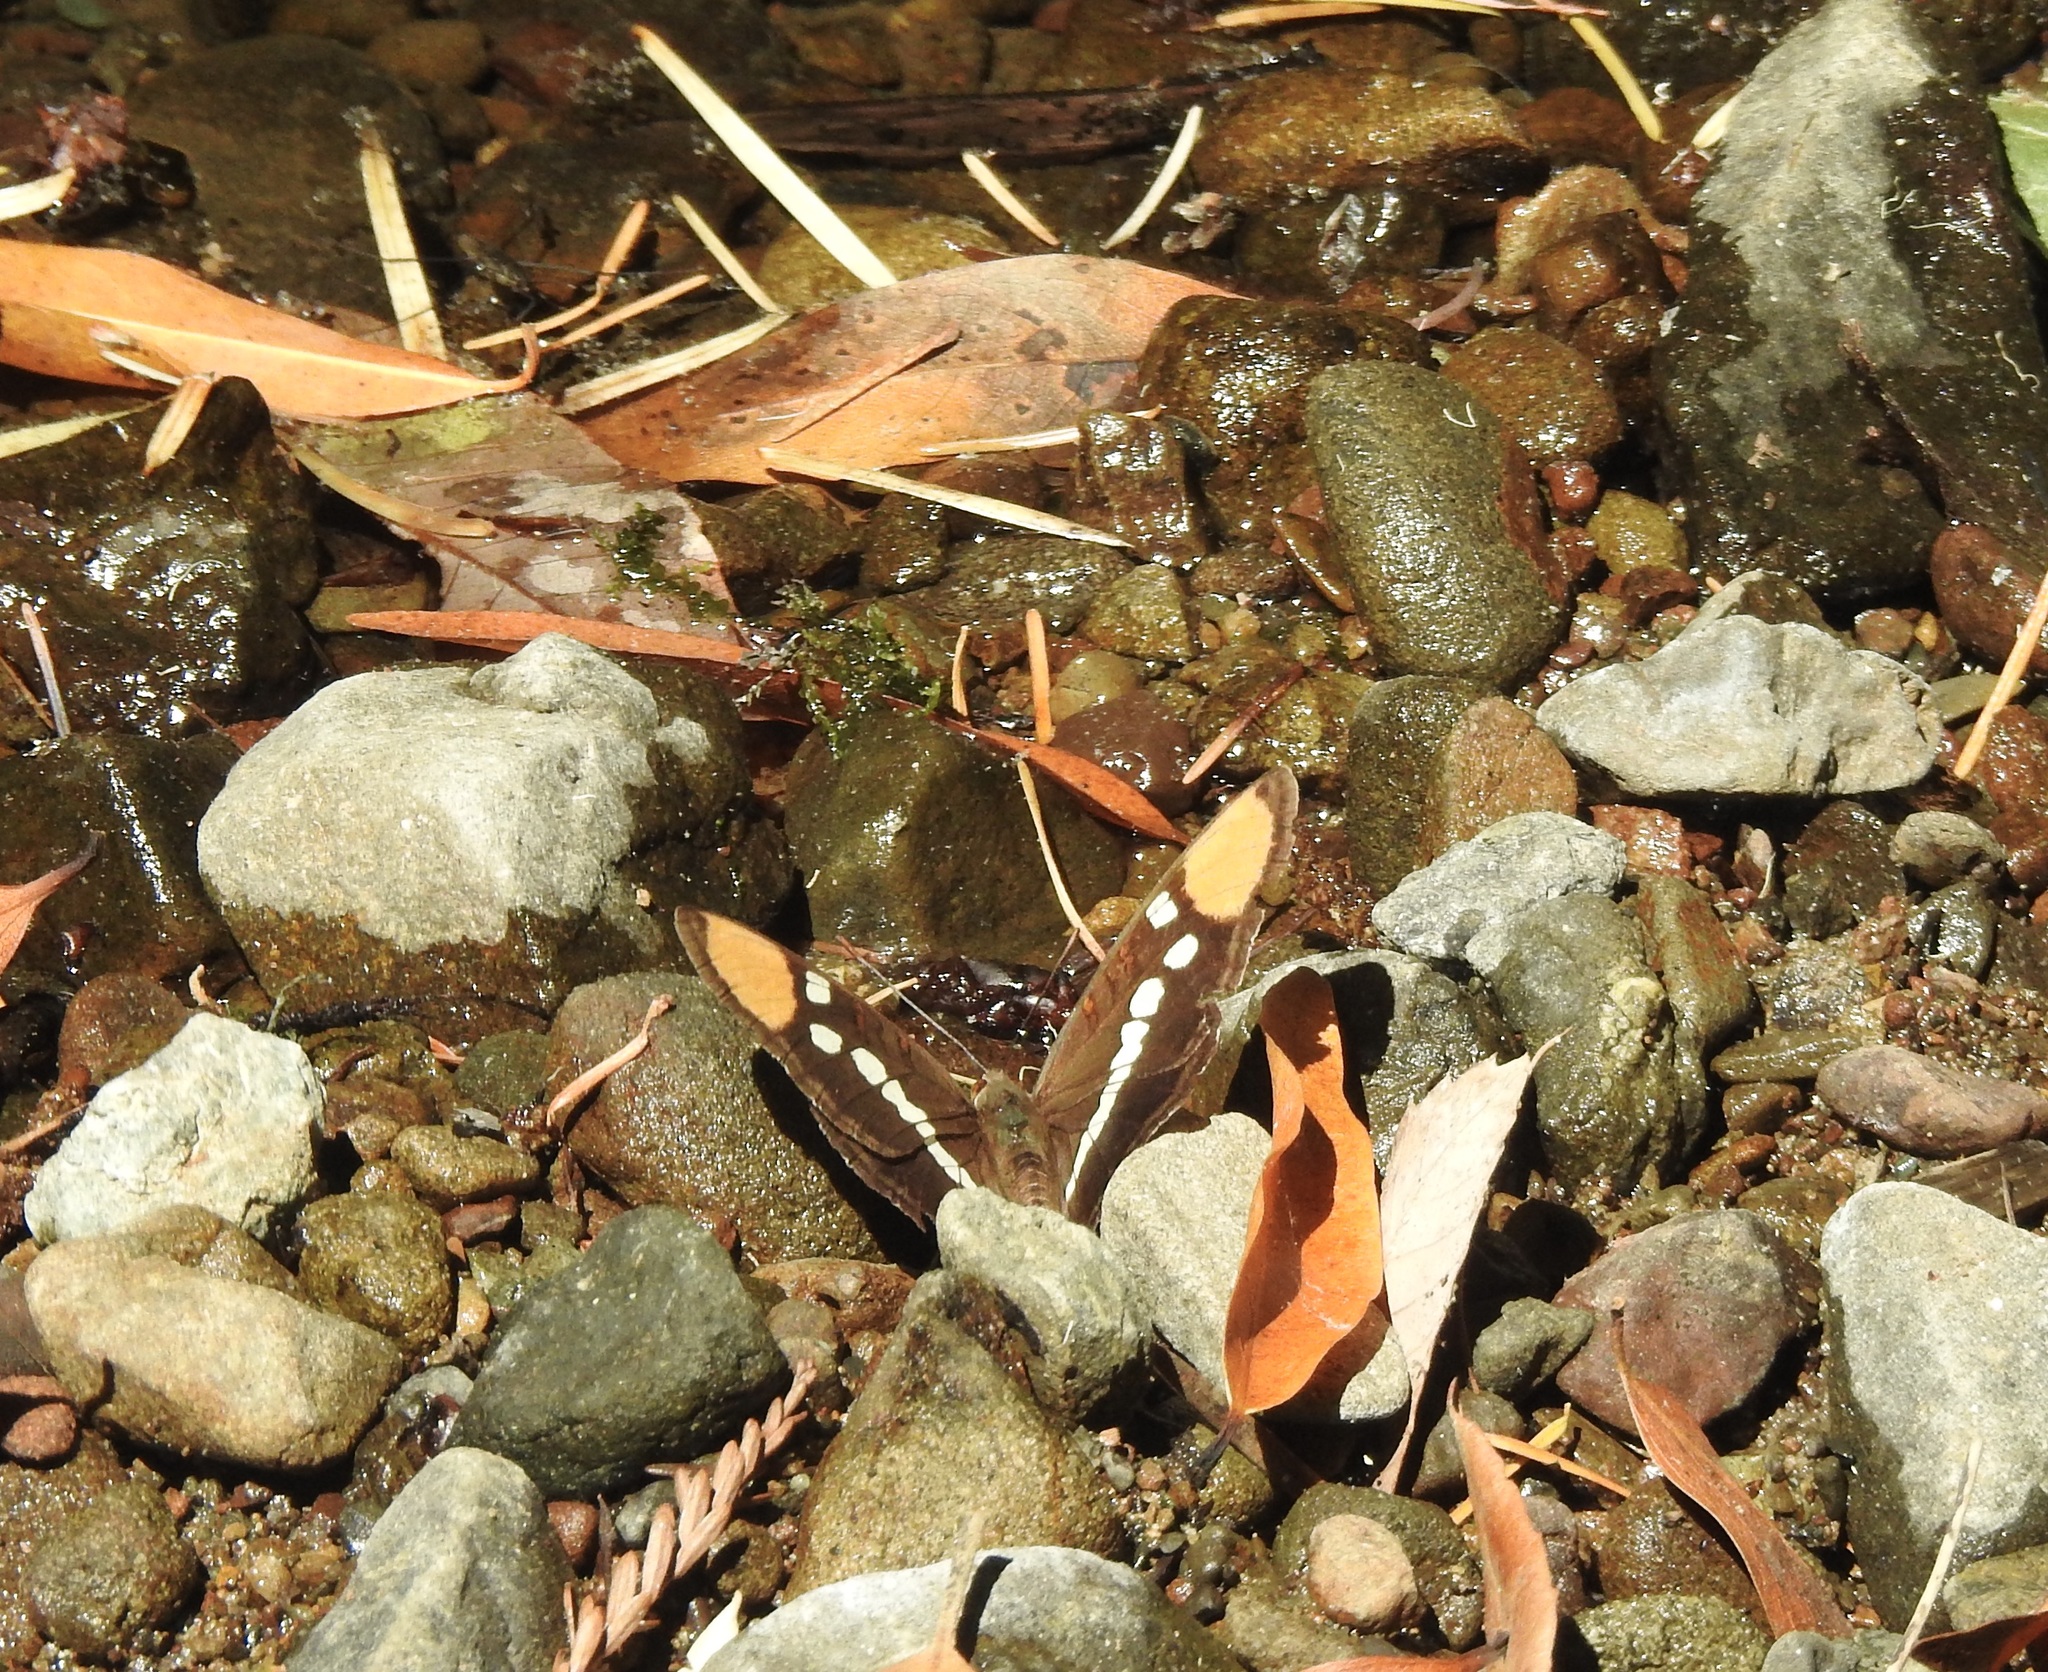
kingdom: Animalia
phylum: Arthropoda
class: Insecta
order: Lepidoptera
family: Nymphalidae
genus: Limenitis
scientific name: Limenitis bredowii
